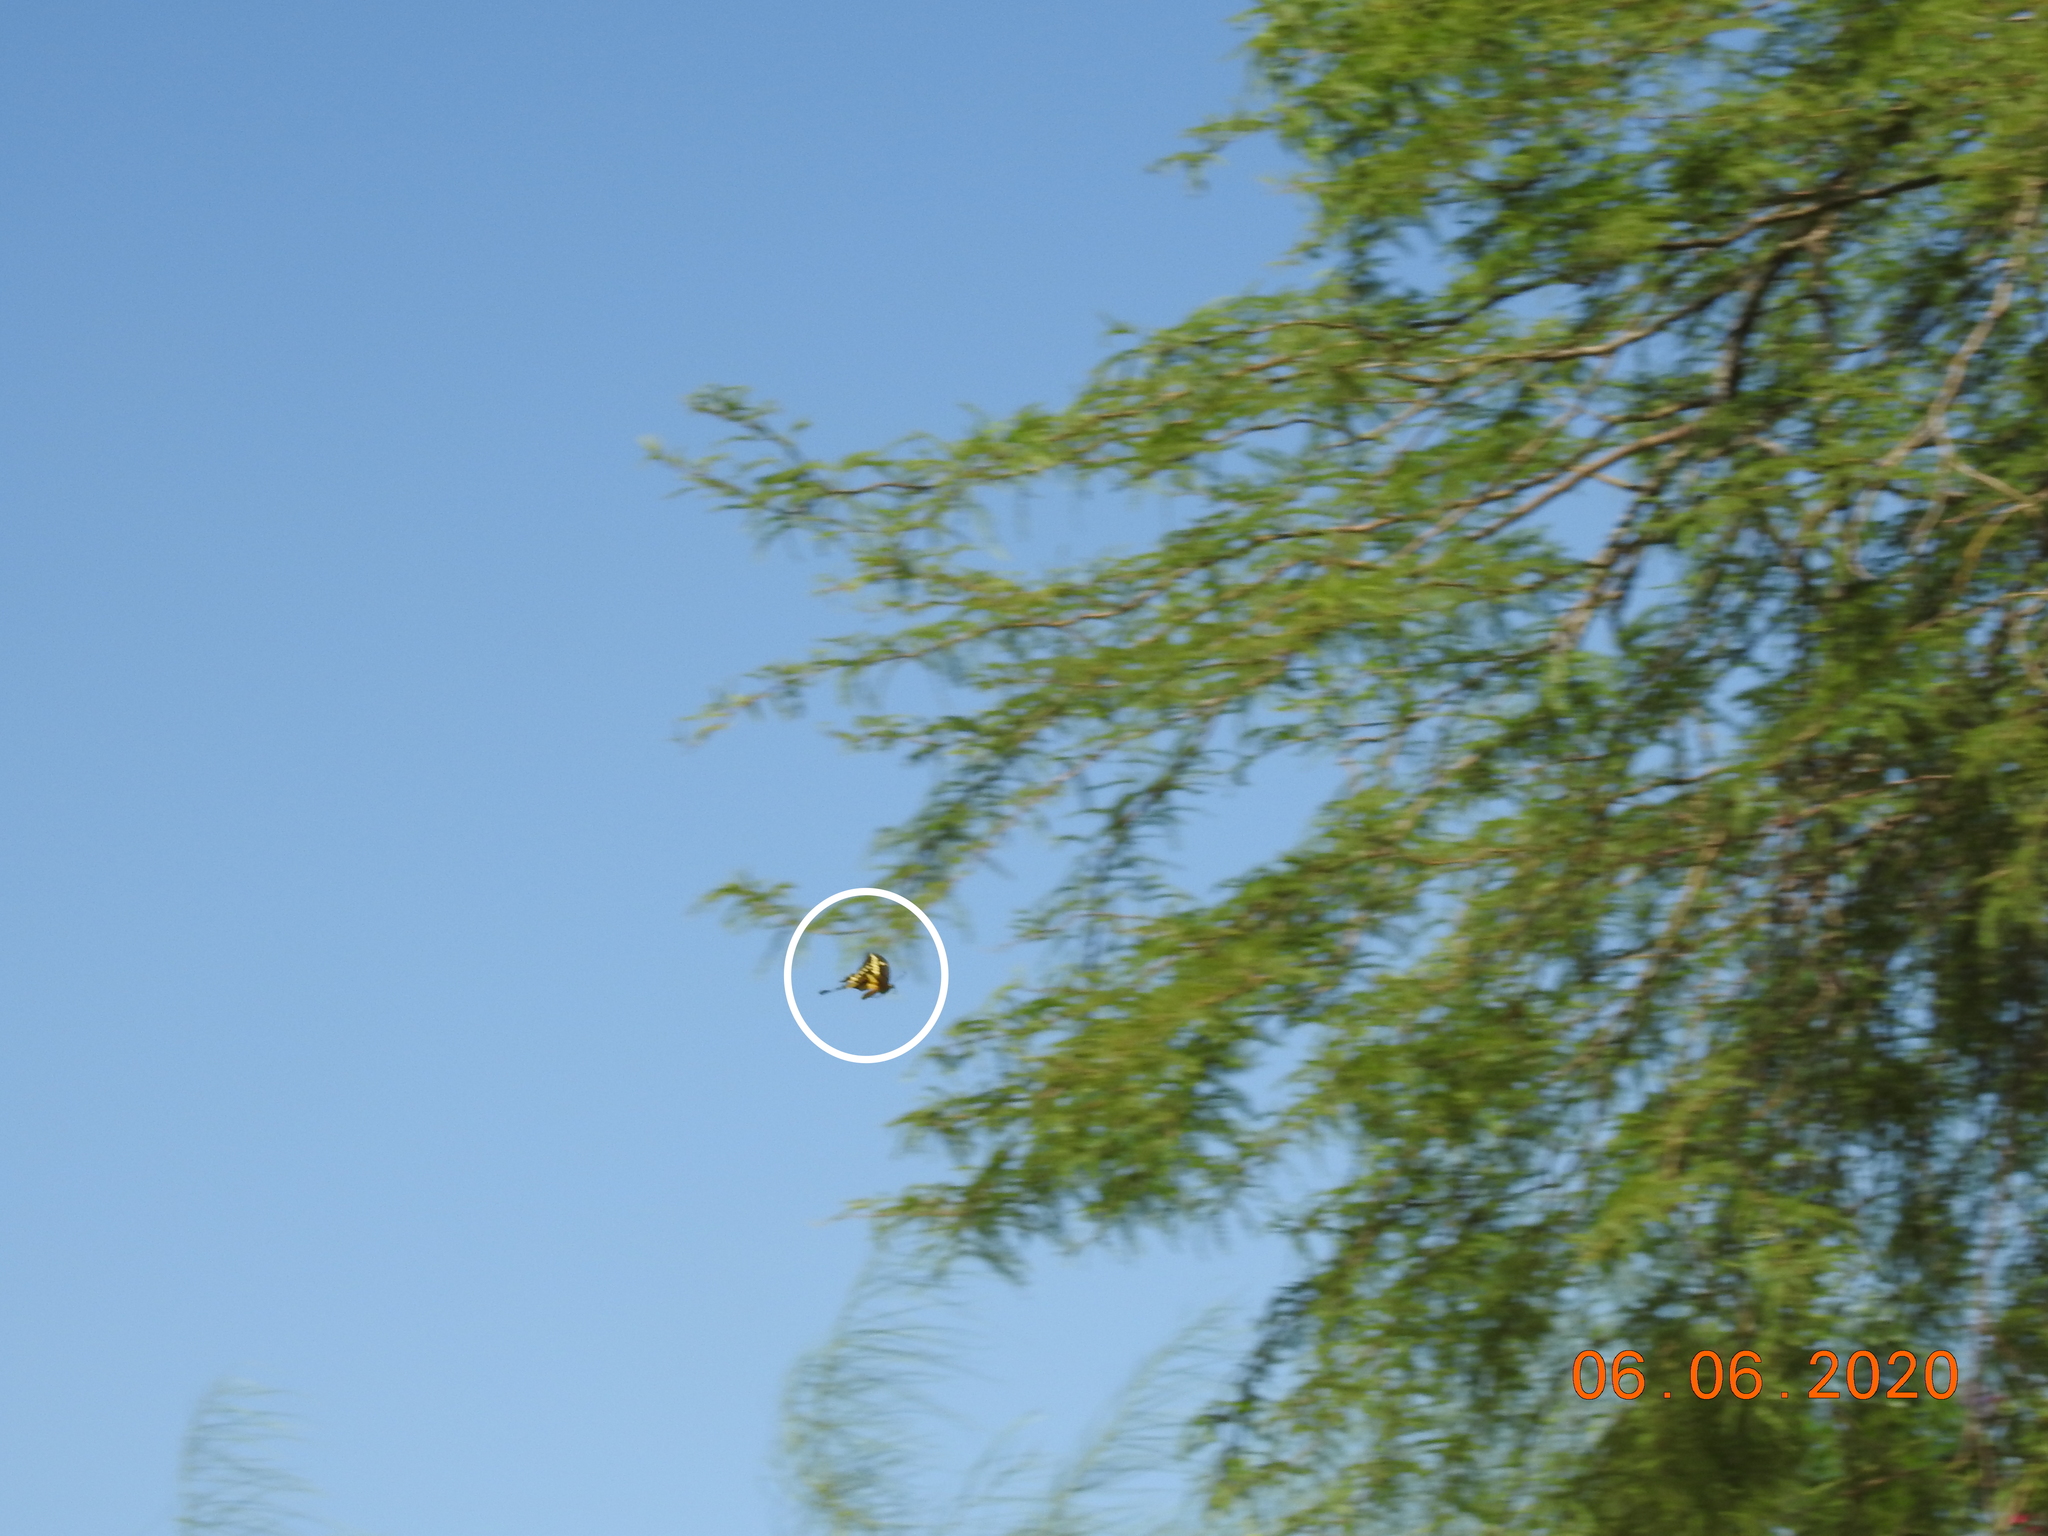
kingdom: Animalia
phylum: Arthropoda
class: Insecta
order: Lepidoptera
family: Papilionidae
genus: Papilio
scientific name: Papilio rumiko
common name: Western giant swallowtail
